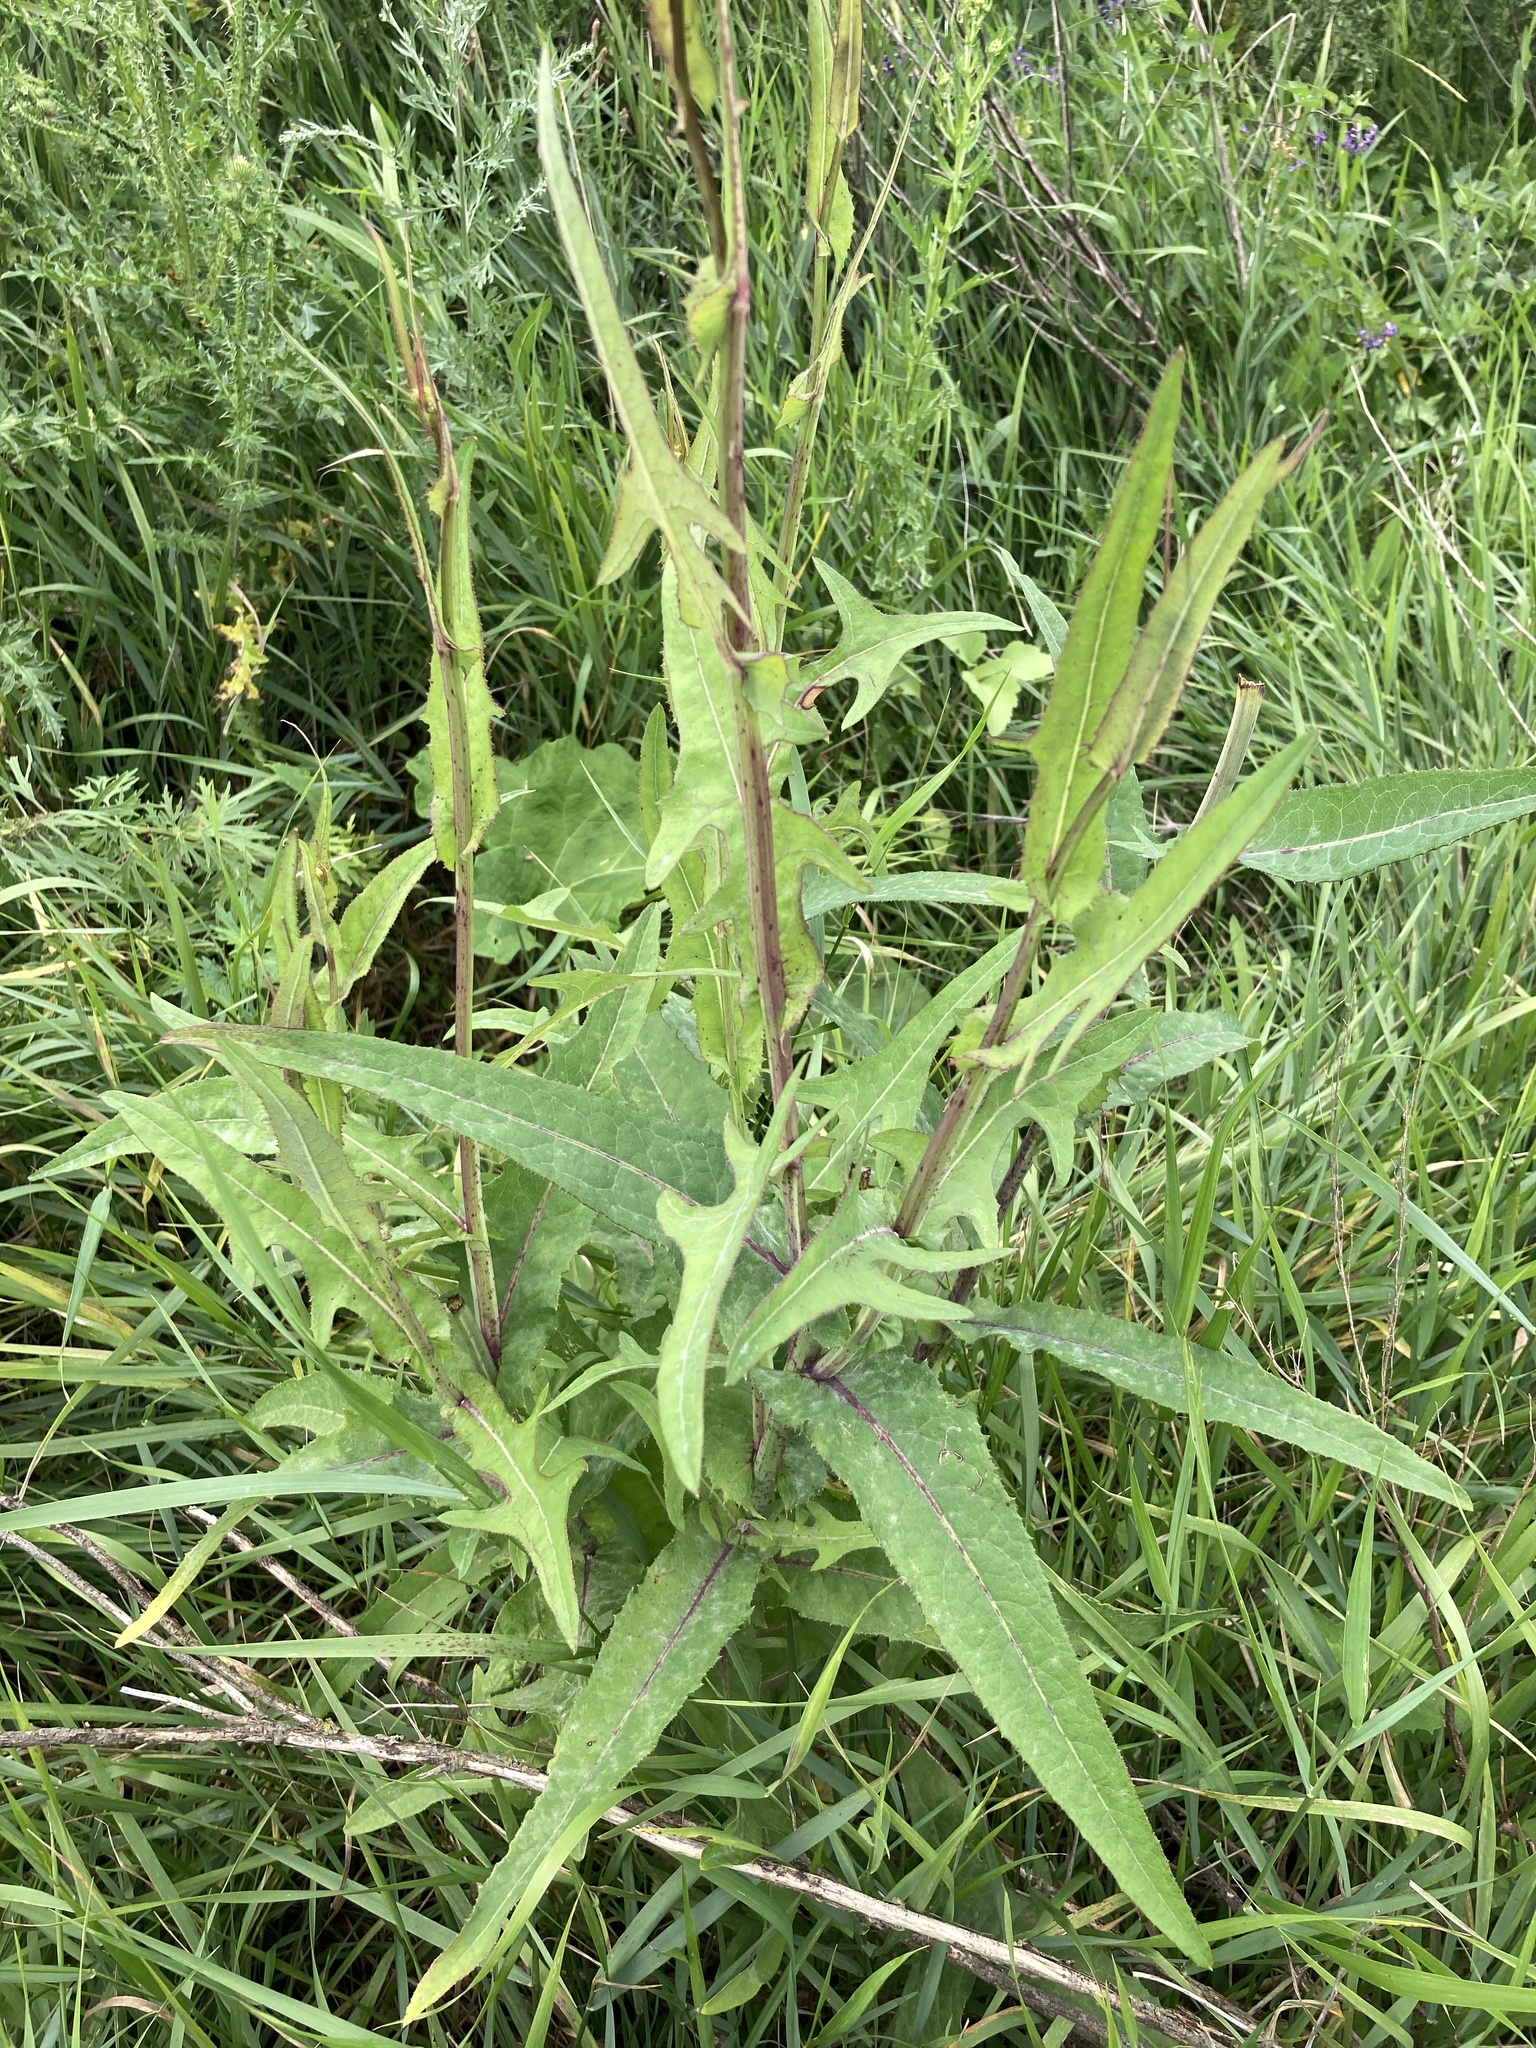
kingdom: Plantae
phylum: Tracheophyta
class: Magnoliopsida
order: Asterales
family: Asteraceae
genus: Sonchus
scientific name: Sonchus palustris
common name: Marsh sow-thistle
